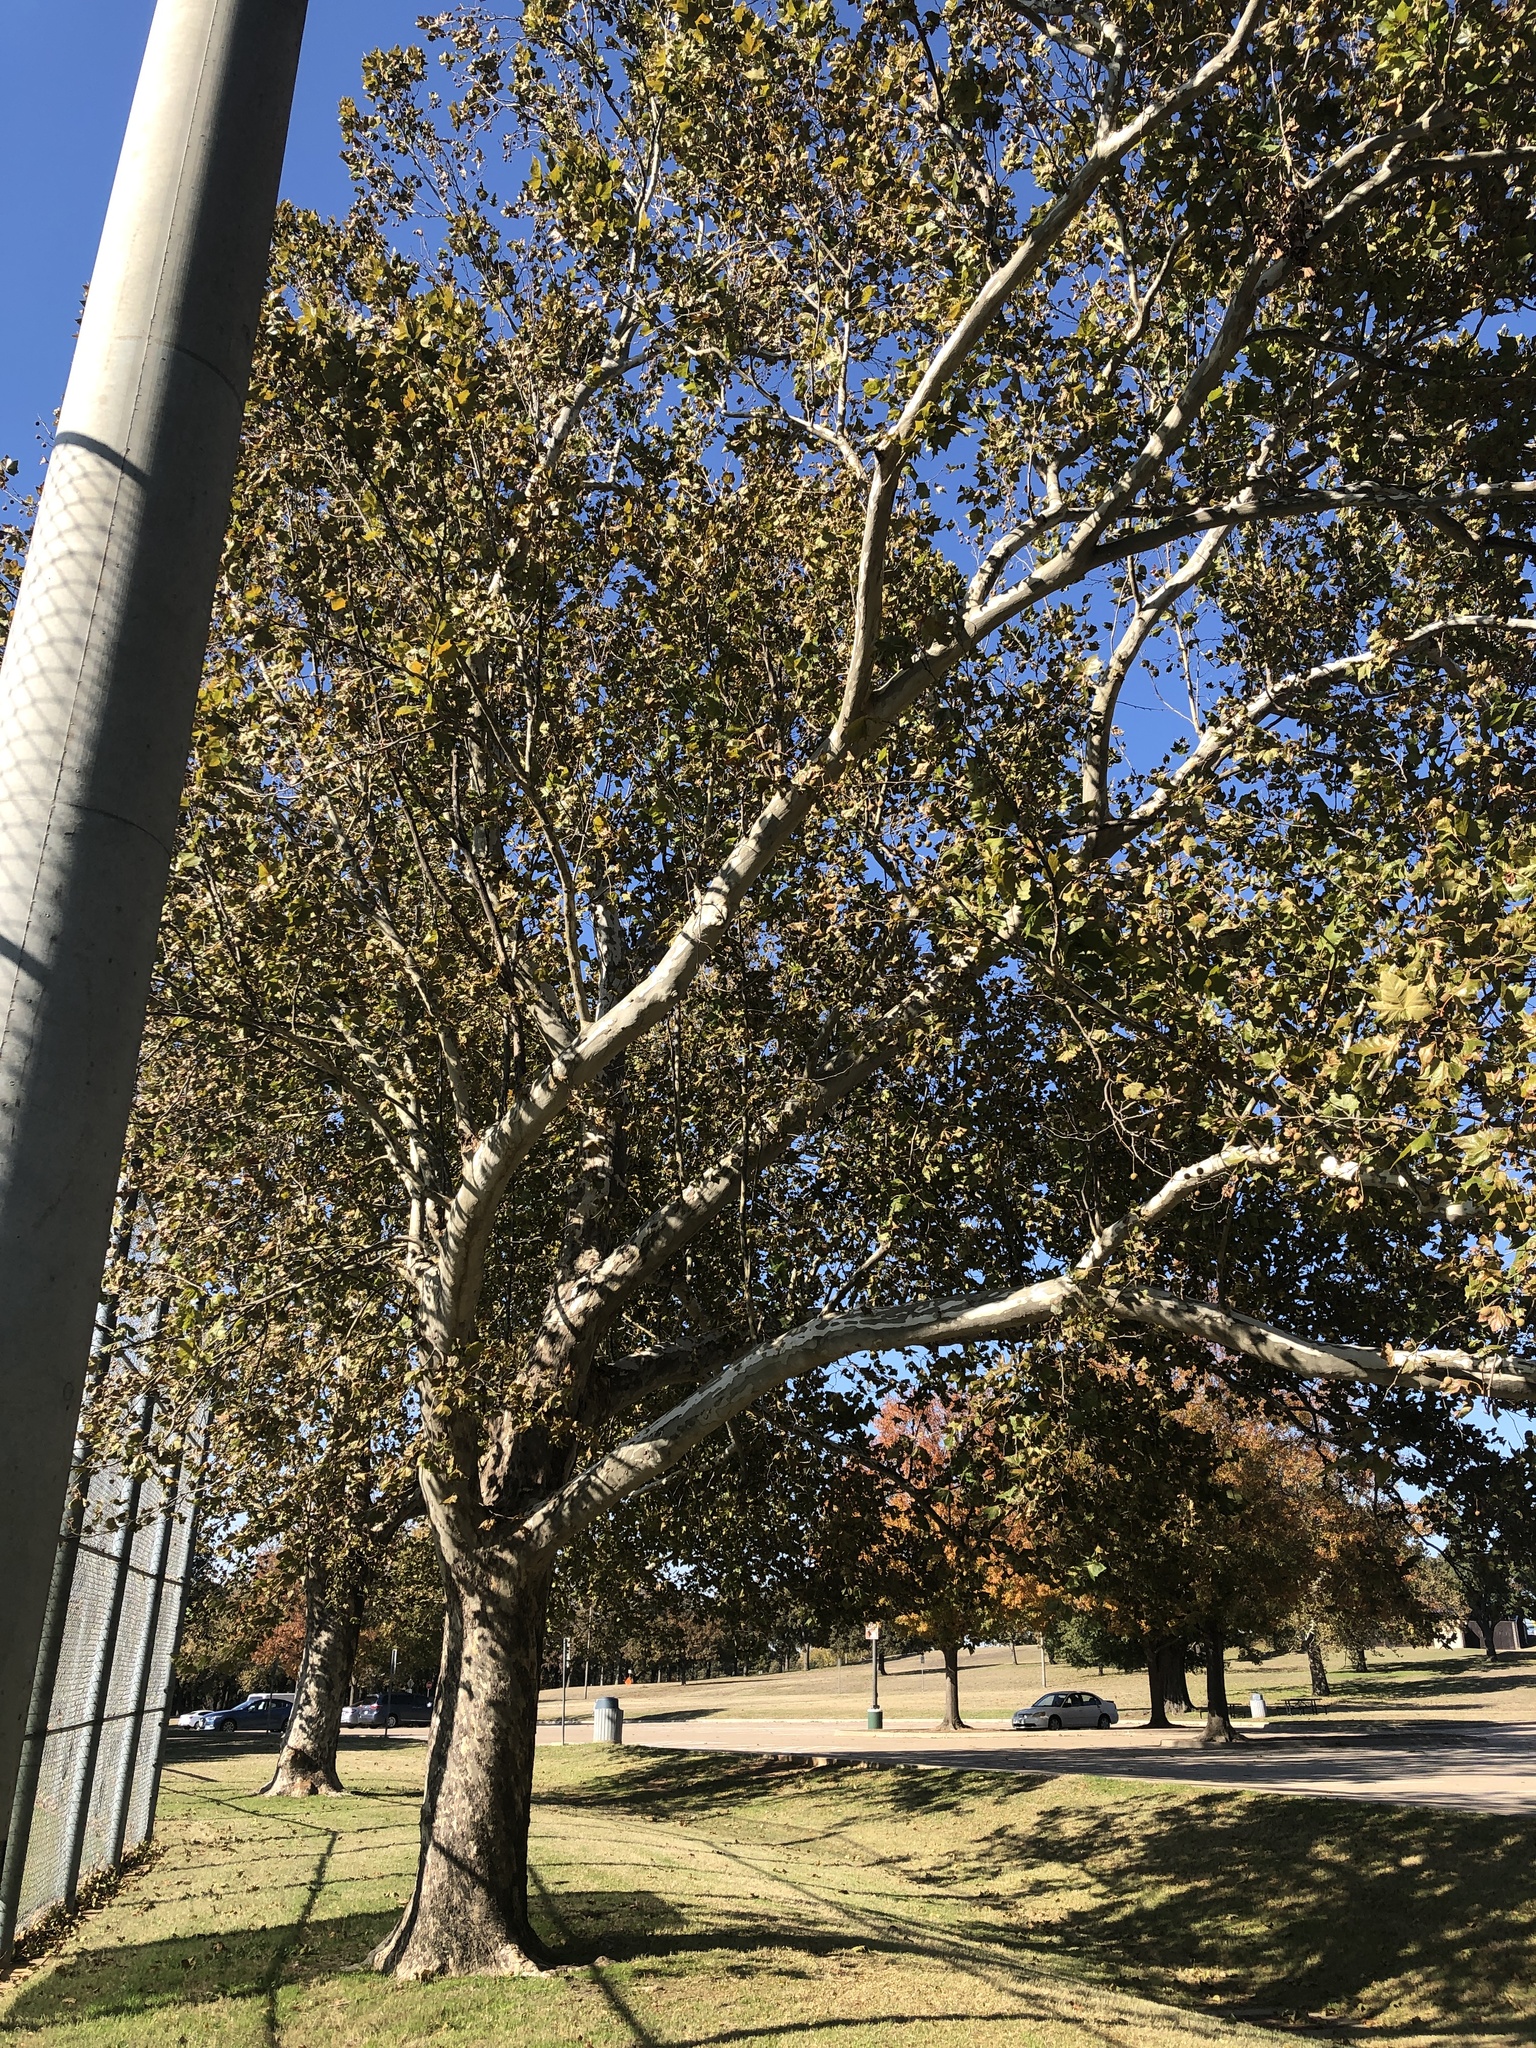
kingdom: Plantae
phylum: Tracheophyta
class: Magnoliopsida
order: Proteales
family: Platanaceae
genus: Platanus
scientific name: Platanus occidentalis
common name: American sycamore
